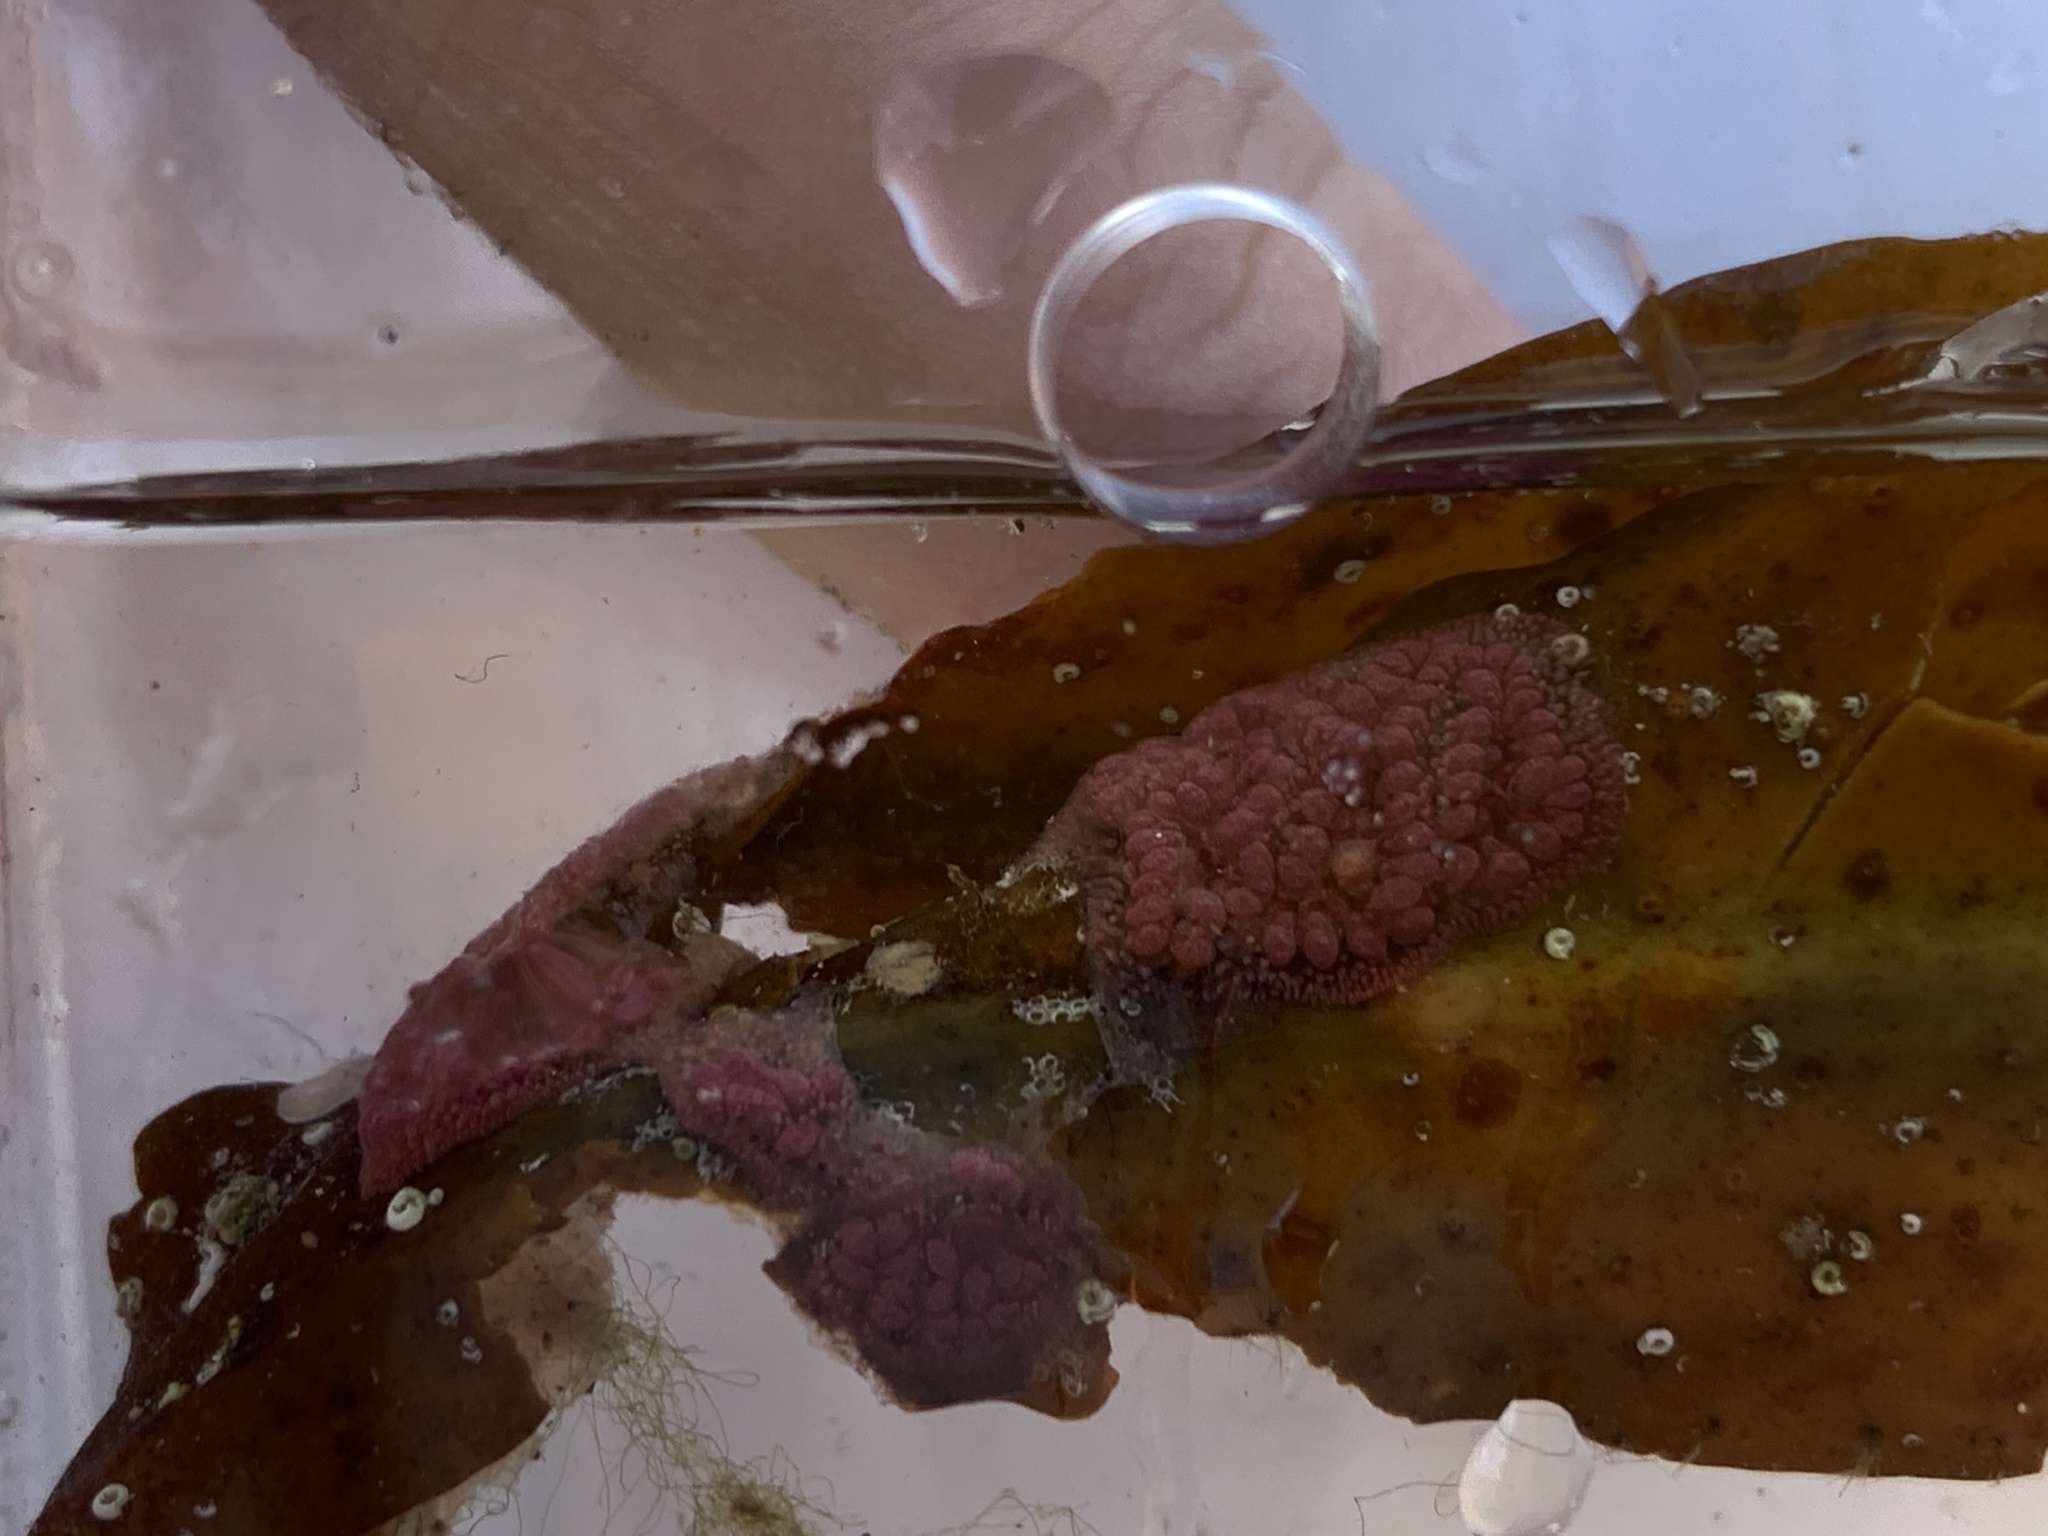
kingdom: Animalia
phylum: Chordata
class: Ascidiacea
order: Stolidobranchia
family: Styelidae
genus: Botrylloides
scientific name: Botrylloides violaceus
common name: Colonial sea squirt
